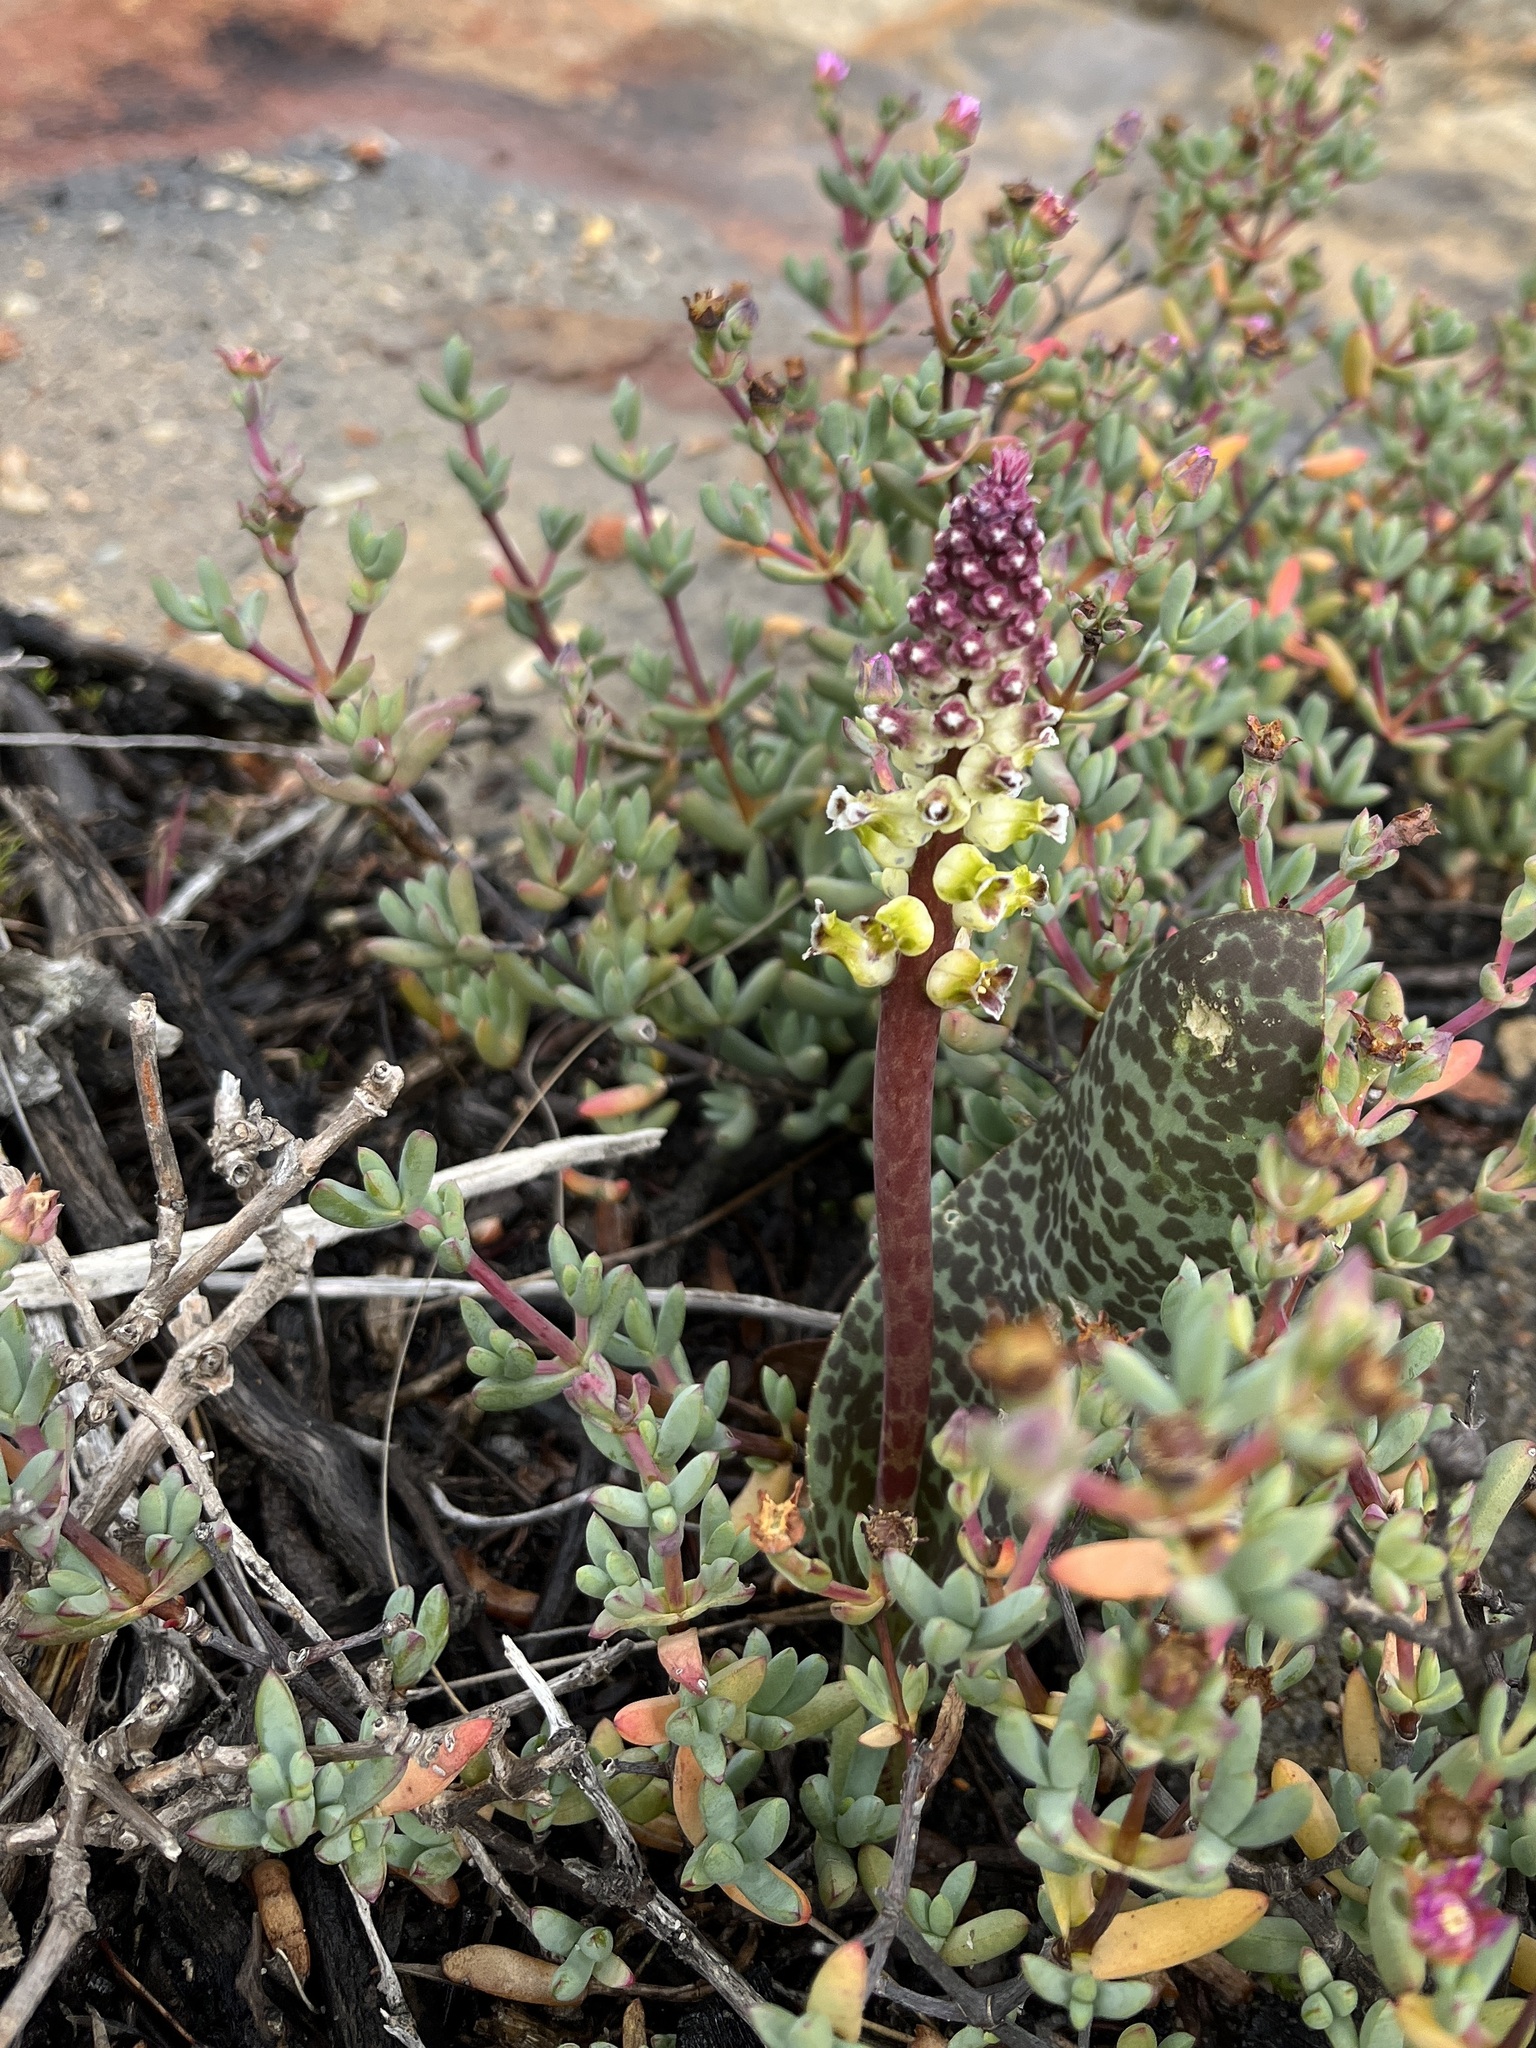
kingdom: Plantae
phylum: Tracheophyta
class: Liliopsida
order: Asparagales
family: Asparagaceae
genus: Lachenalia
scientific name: Lachenalia membranacea
